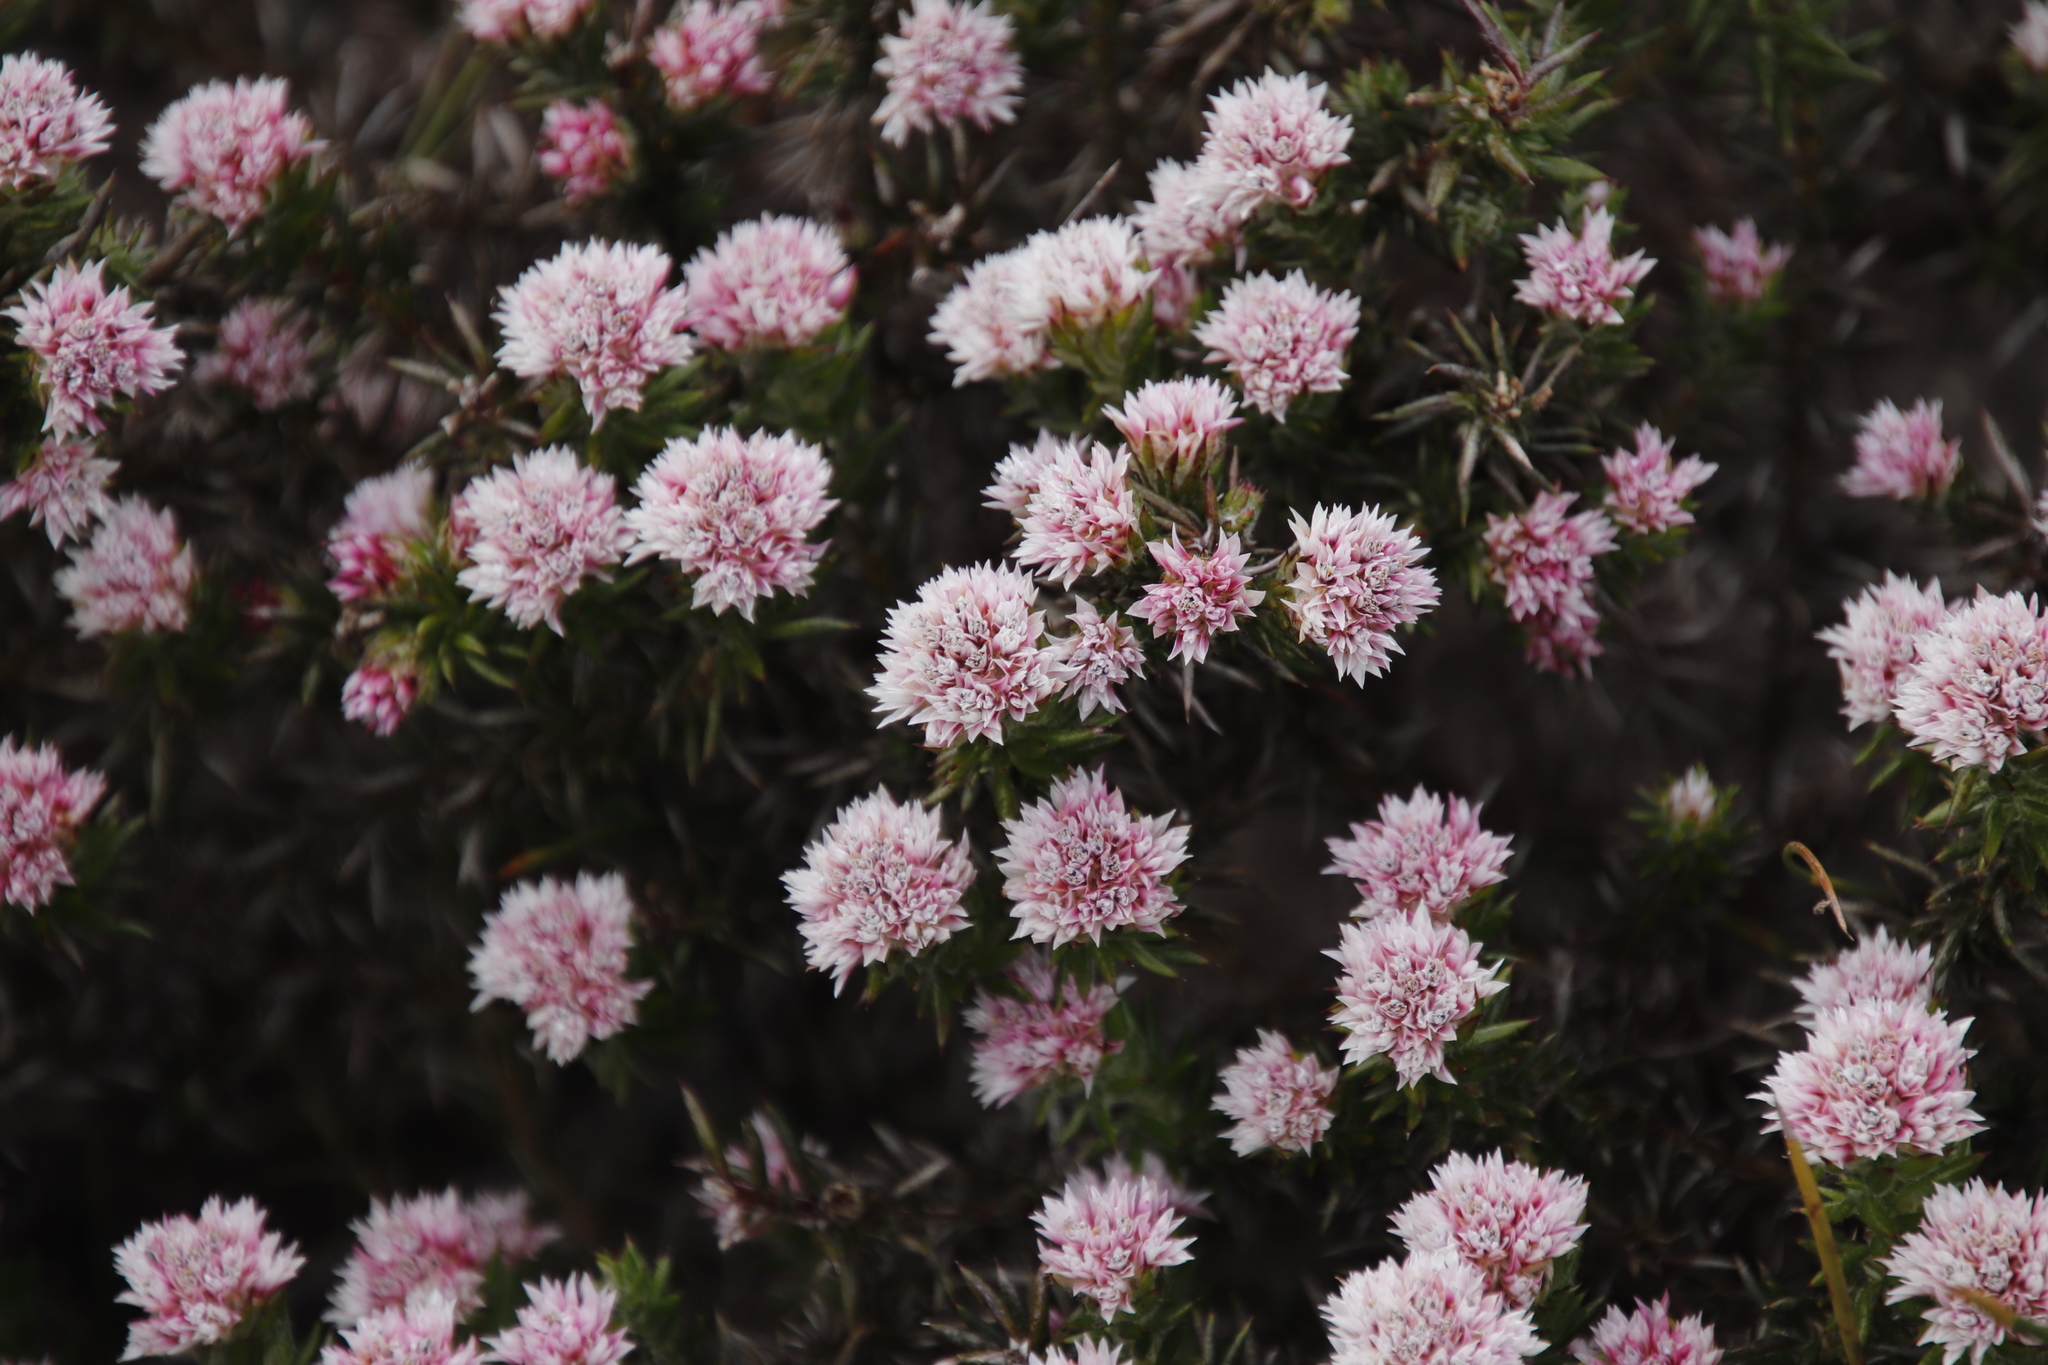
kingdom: Plantae
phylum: Tracheophyta
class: Magnoliopsida
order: Asterales
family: Asteraceae
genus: Metalasia
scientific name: Metalasia inversa
